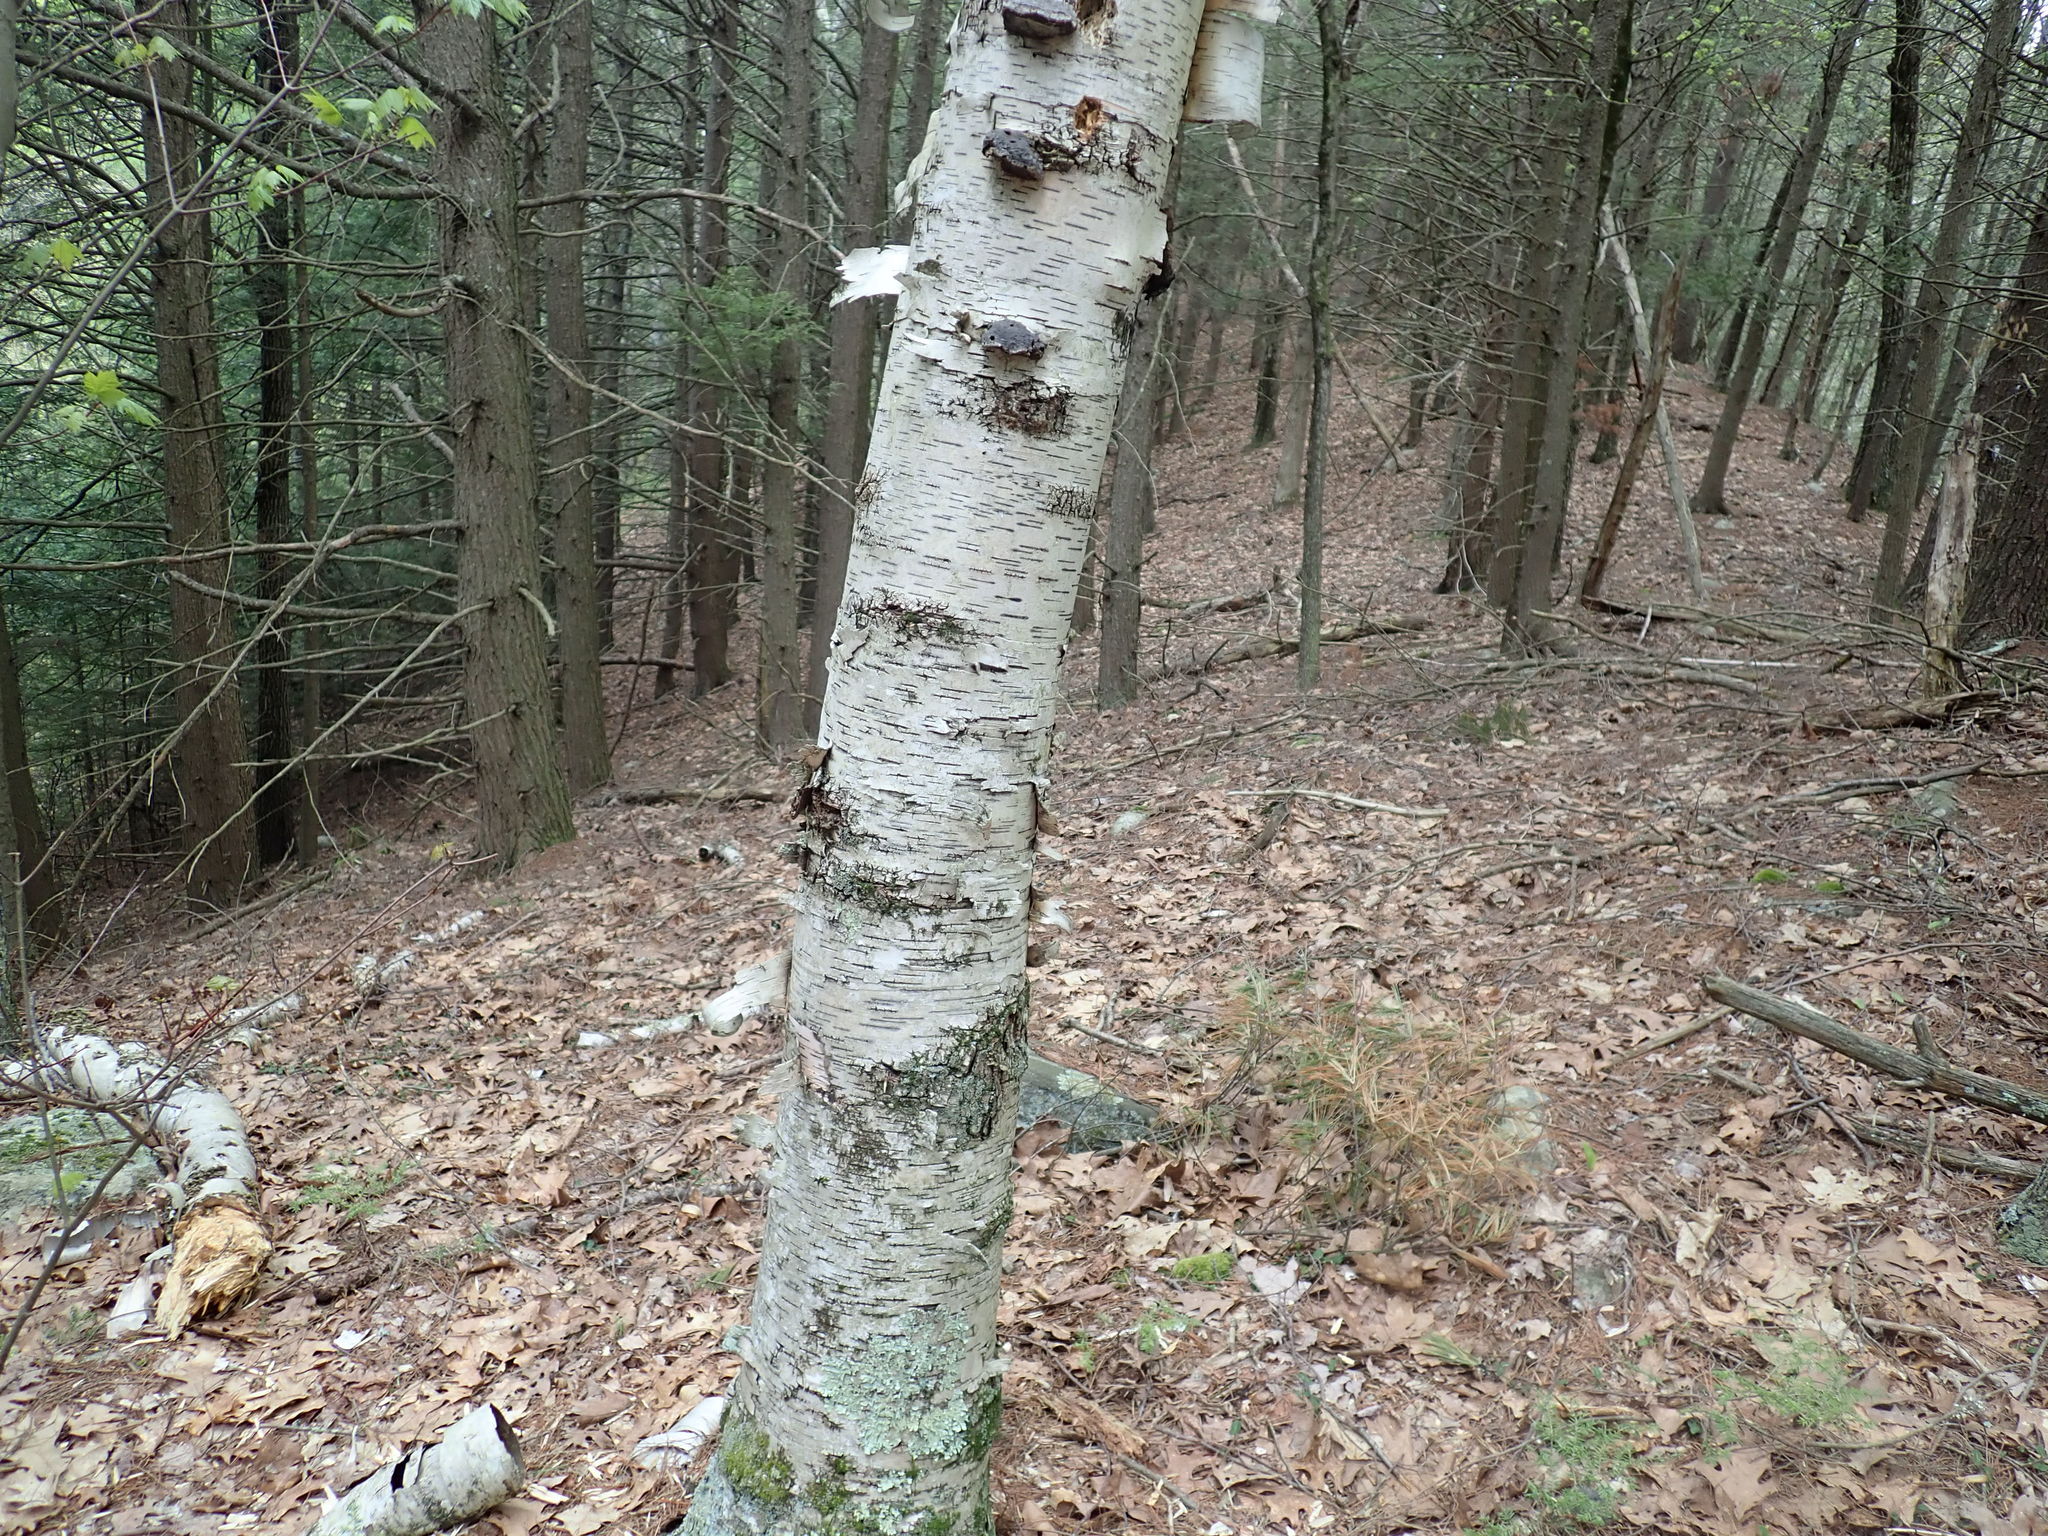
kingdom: Plantae
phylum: Tracheophyta
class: Magnoliopsida
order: Fagales
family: Betulaceae
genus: Betula
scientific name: Betula papyrifera
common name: Paper birch
